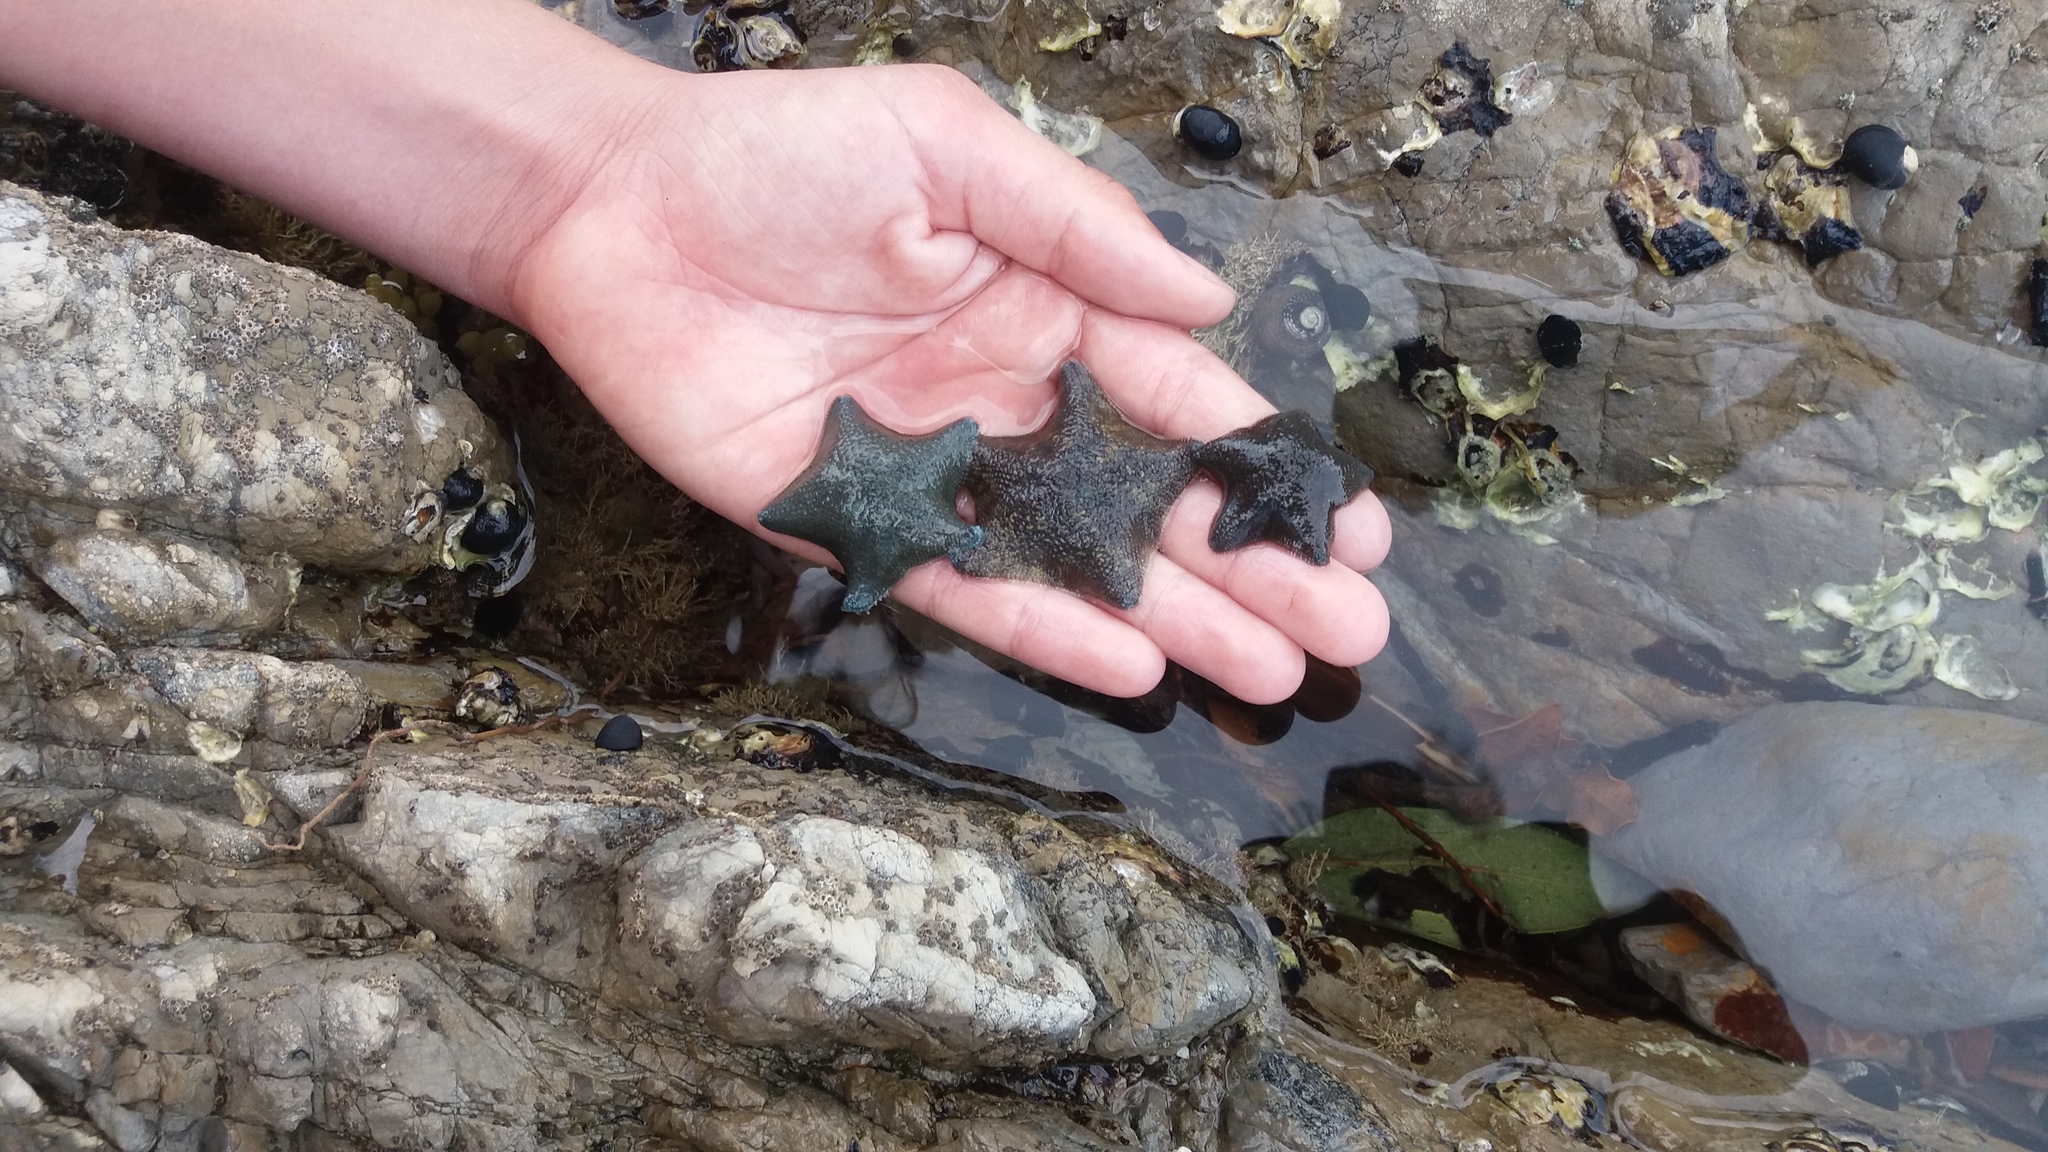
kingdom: Animalia
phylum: Echinodermata
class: Asteroidea
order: Valvatida
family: Asterinidae
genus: Patiriella
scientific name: Patiriella regularis
